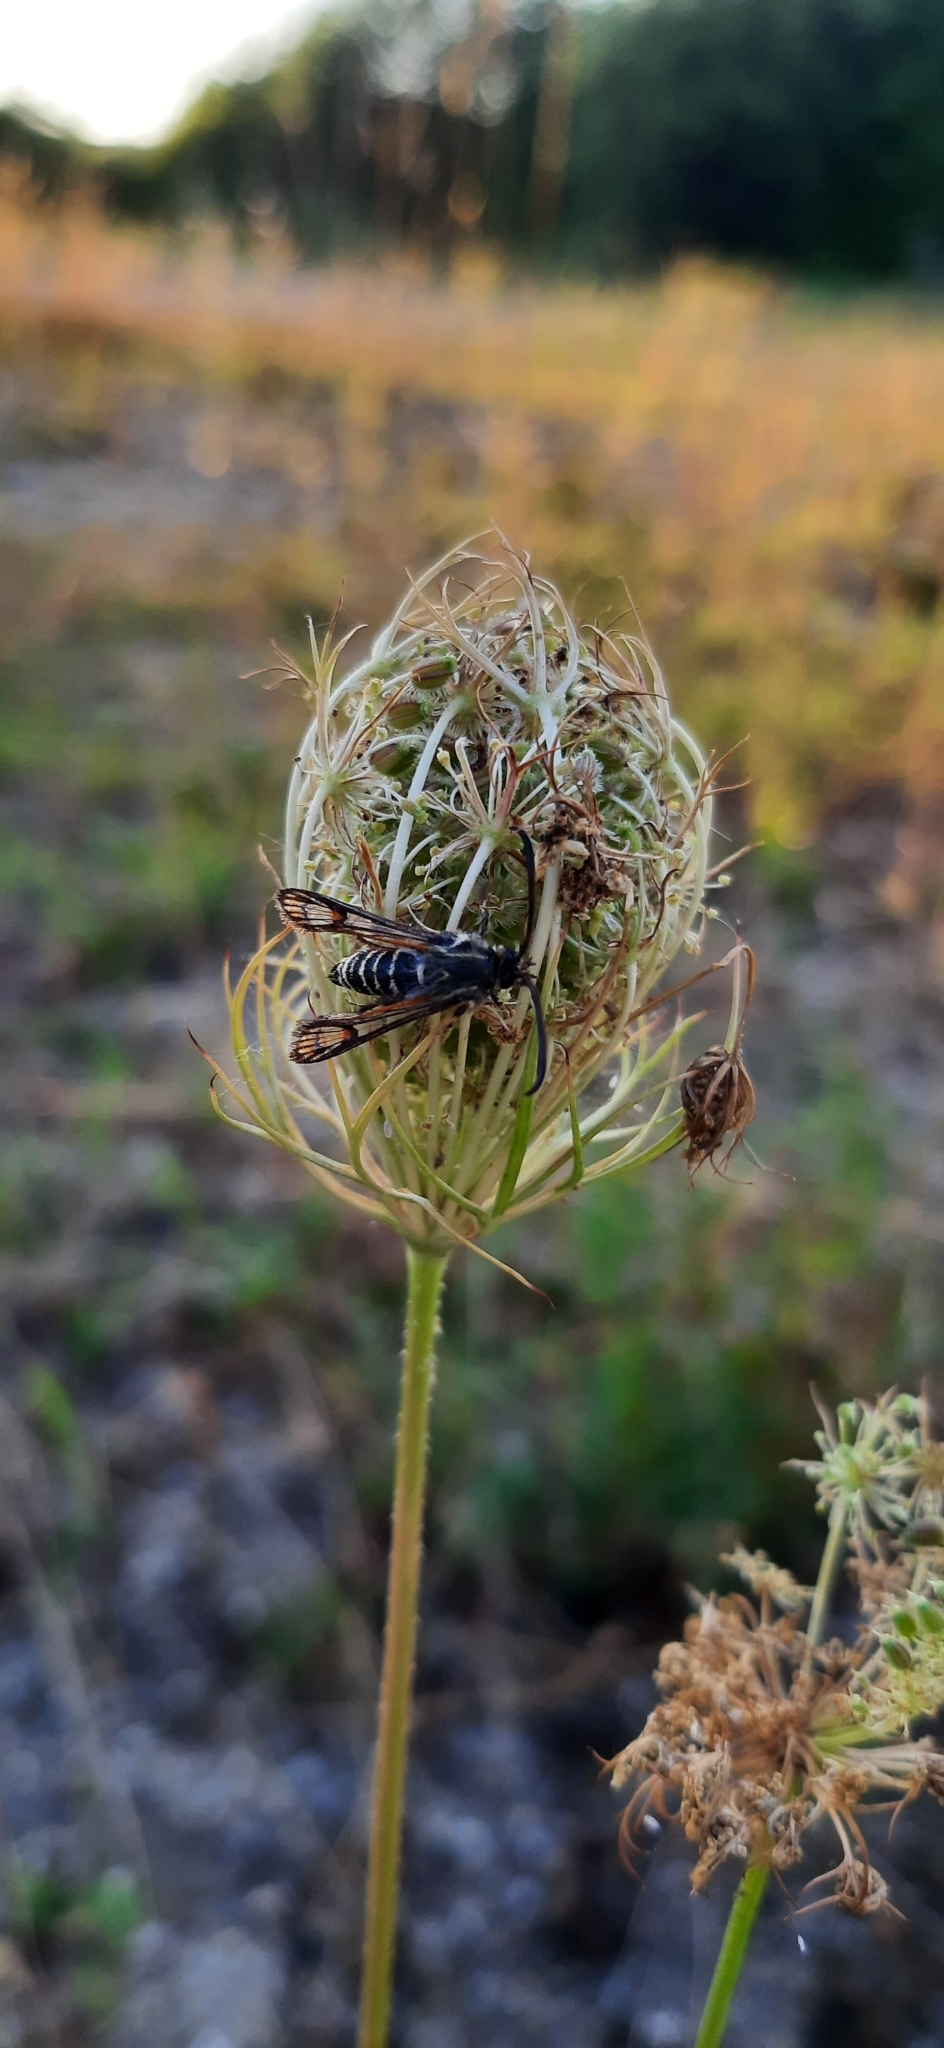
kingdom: Animalia
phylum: Arthropoda
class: Insecta
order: Lepidoptera
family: Sesiidae
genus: Bembecia
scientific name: Bembecia ichneumoniformis
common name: Six-belted clearwing
